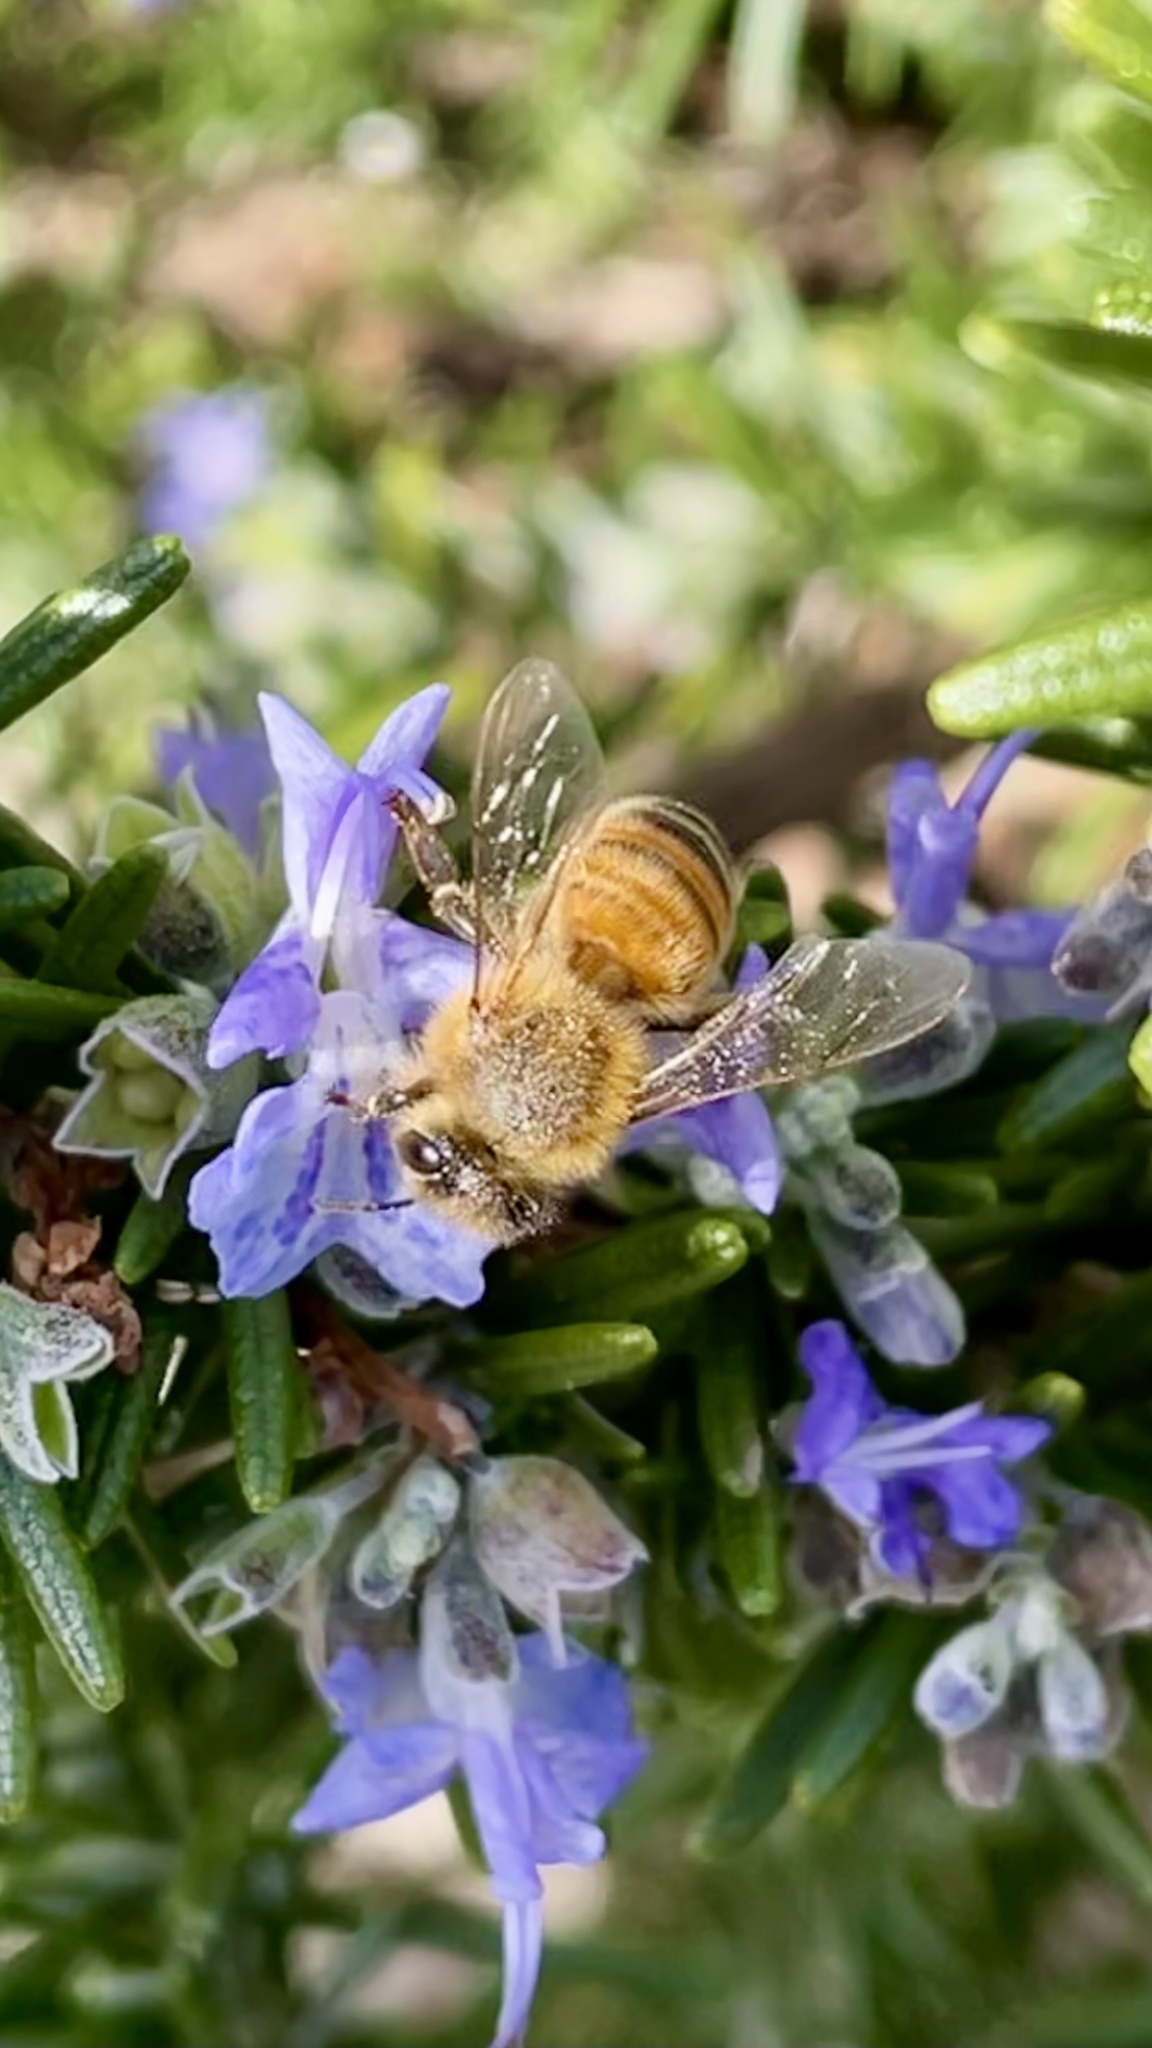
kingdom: Animalia
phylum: Arthropoda
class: Insecta
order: Hymenoptera
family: Apidae
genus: Apis
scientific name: Apis mellifera
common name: Honey bee
